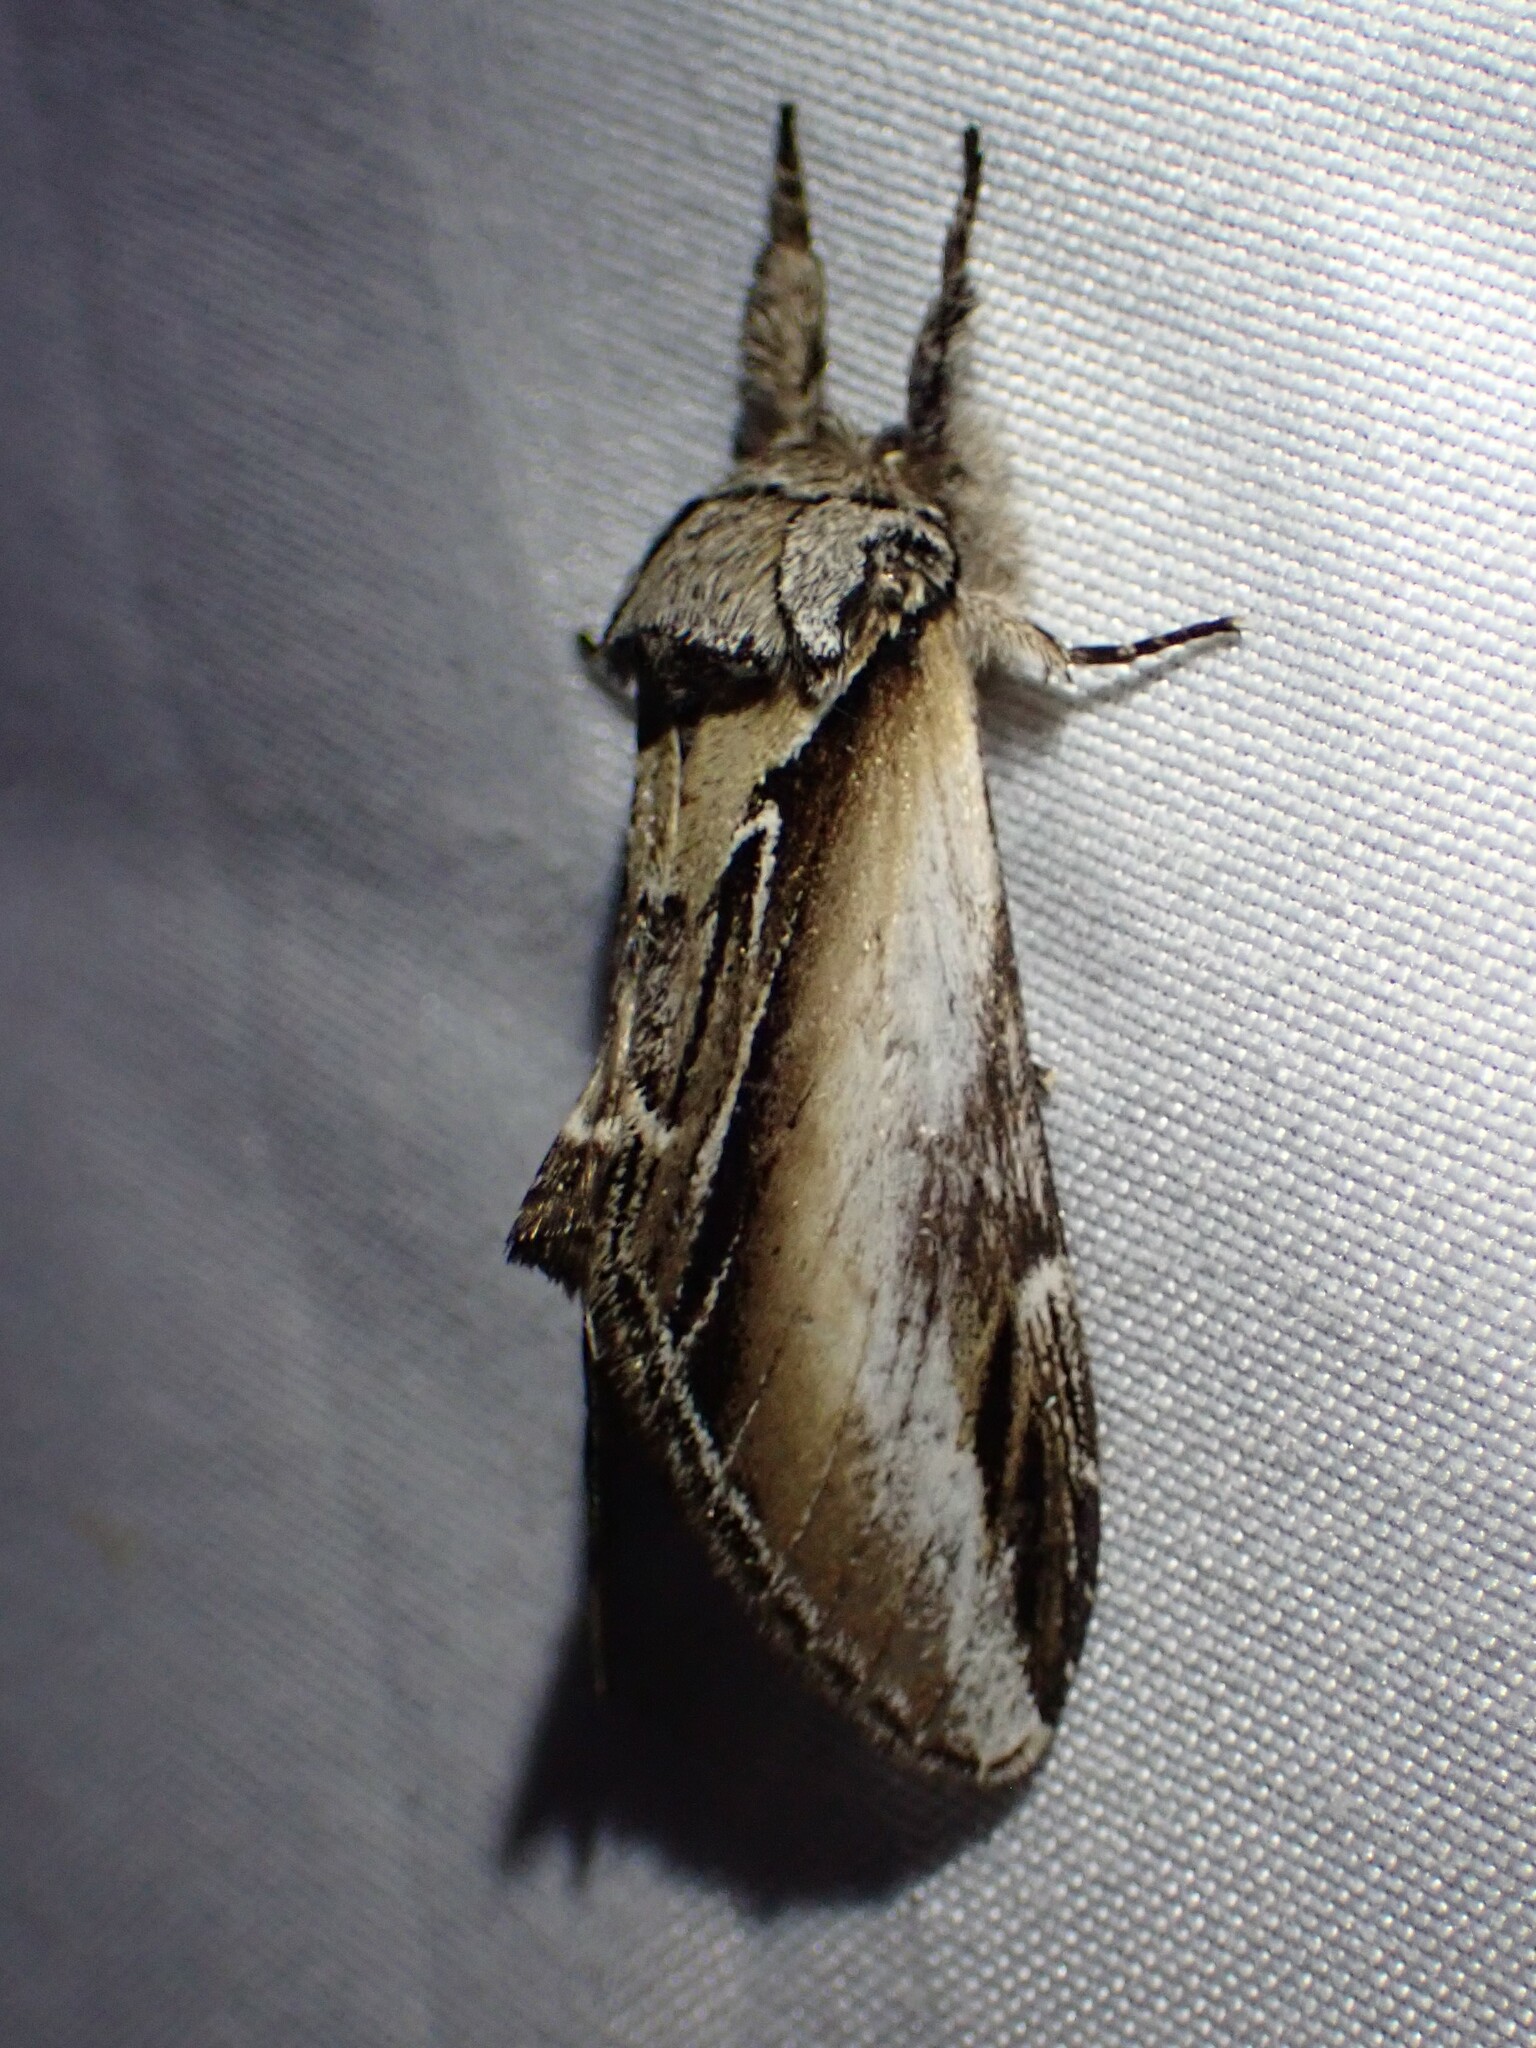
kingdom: Animalia
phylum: Arthropoda
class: Insecta
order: Lepidoptera
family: Notodontidae
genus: Pheosia
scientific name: Pheosia rimosa
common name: Black-rimmed prominent
